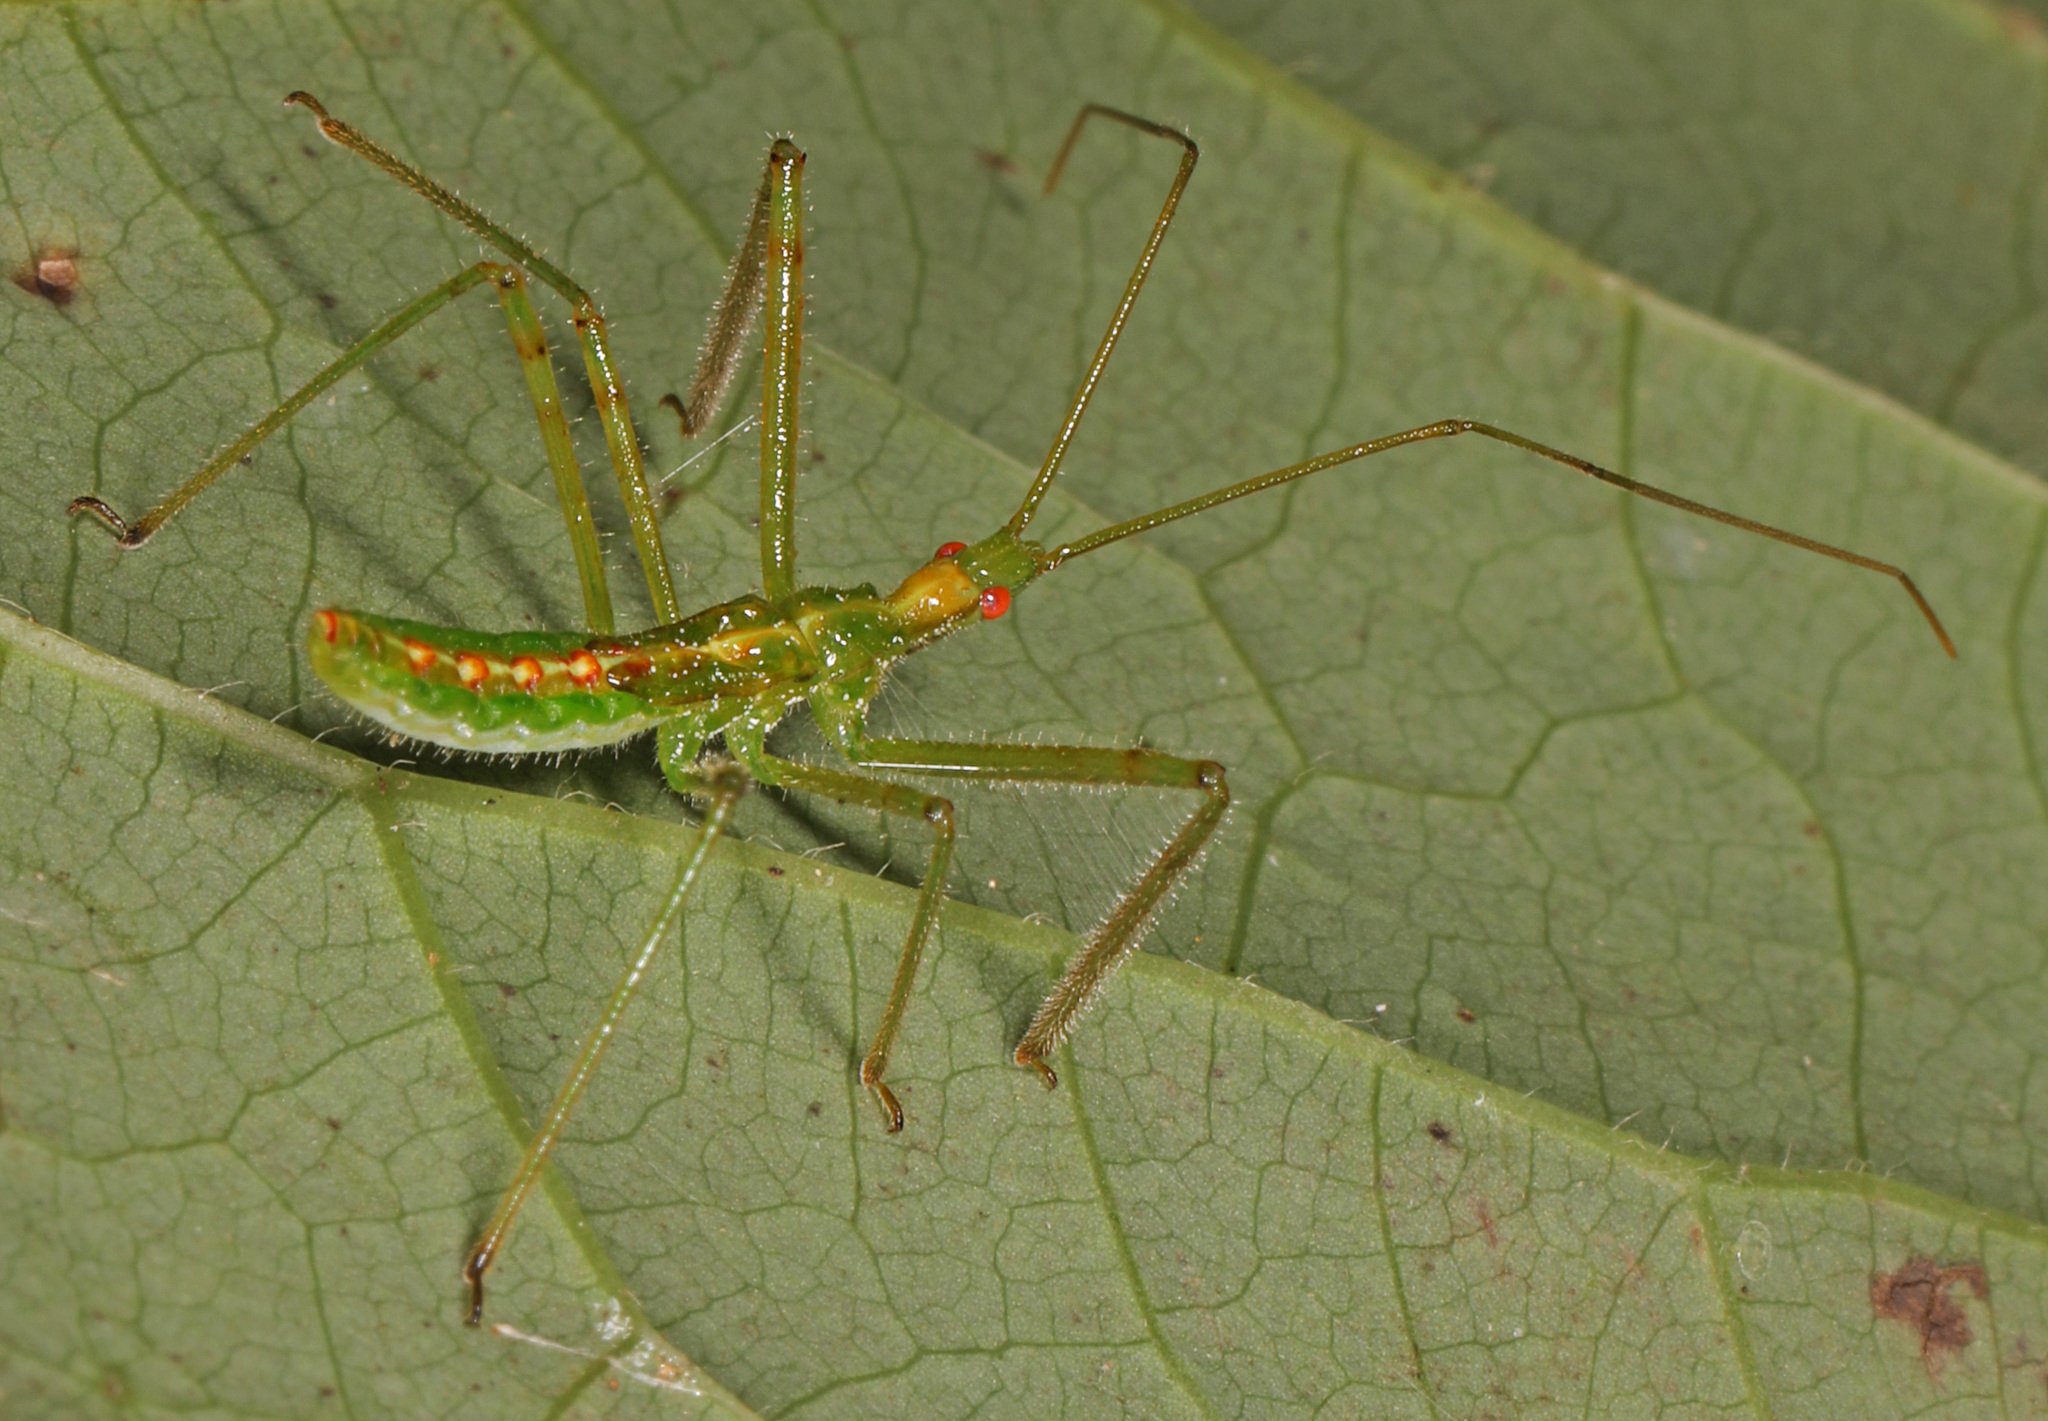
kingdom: Animalia
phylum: Arthropoda
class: Insecta
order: Hemiptera
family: Reduviidae
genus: Zelus
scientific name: Zelus luridus
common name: Pale green assassin bug
